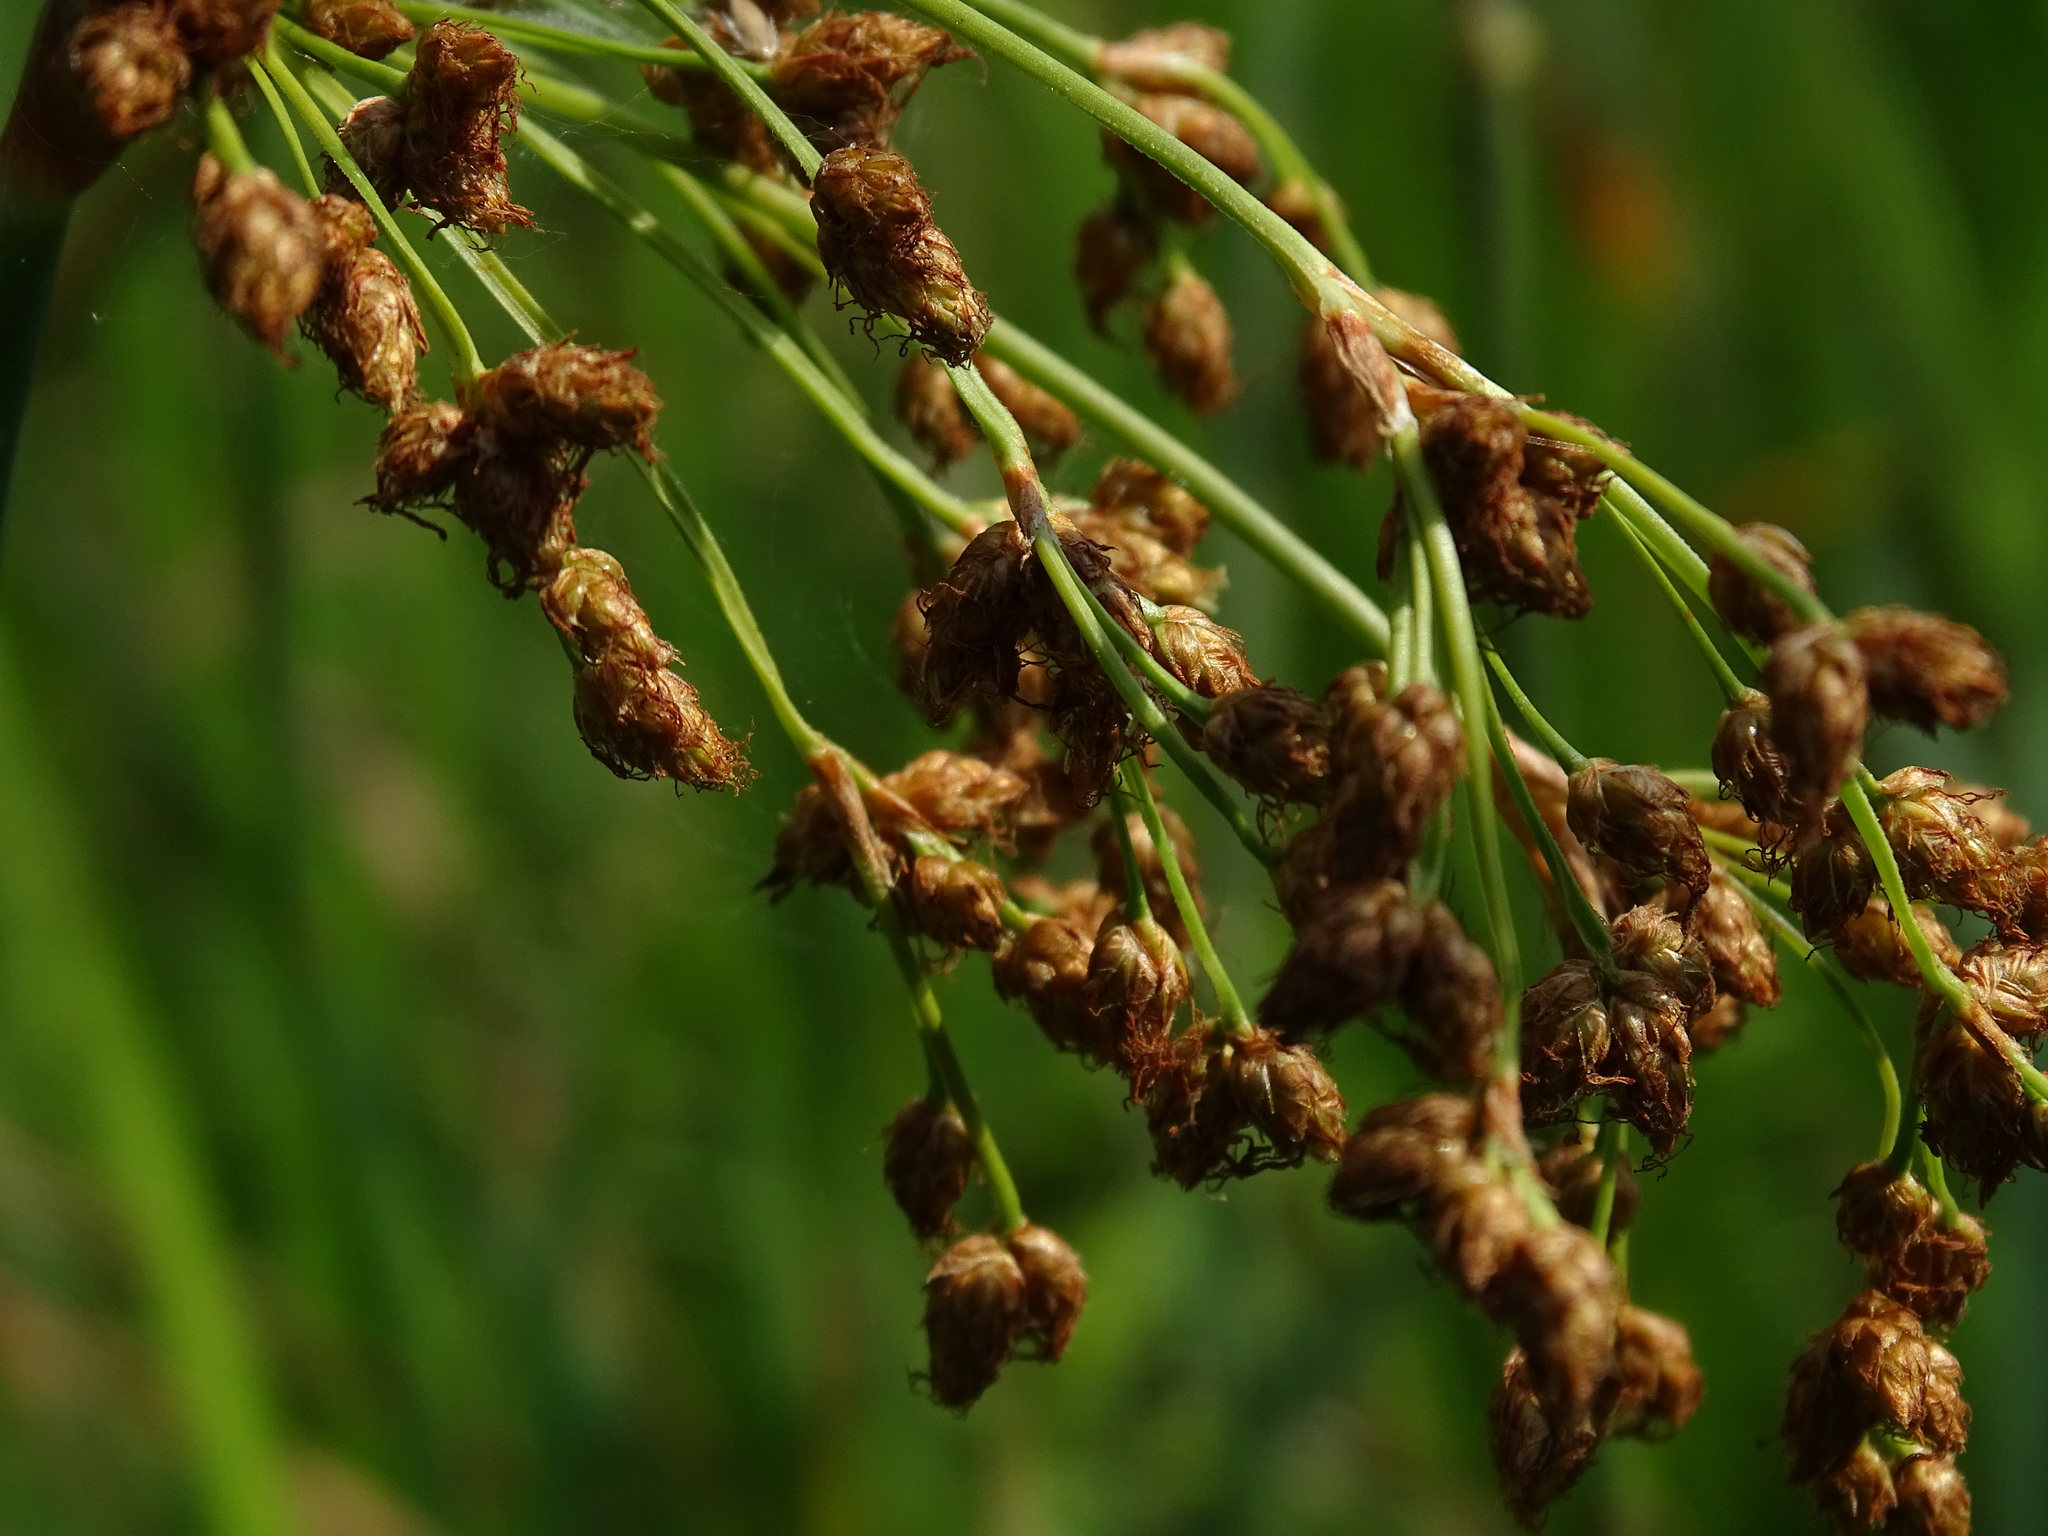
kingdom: Plantae
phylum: Tracheophyta
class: Liliopsida
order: Poales
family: Cyperaceae
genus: Schoenoplectus
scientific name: Schoenoplectus tabernaemontani
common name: Grey club-rush
